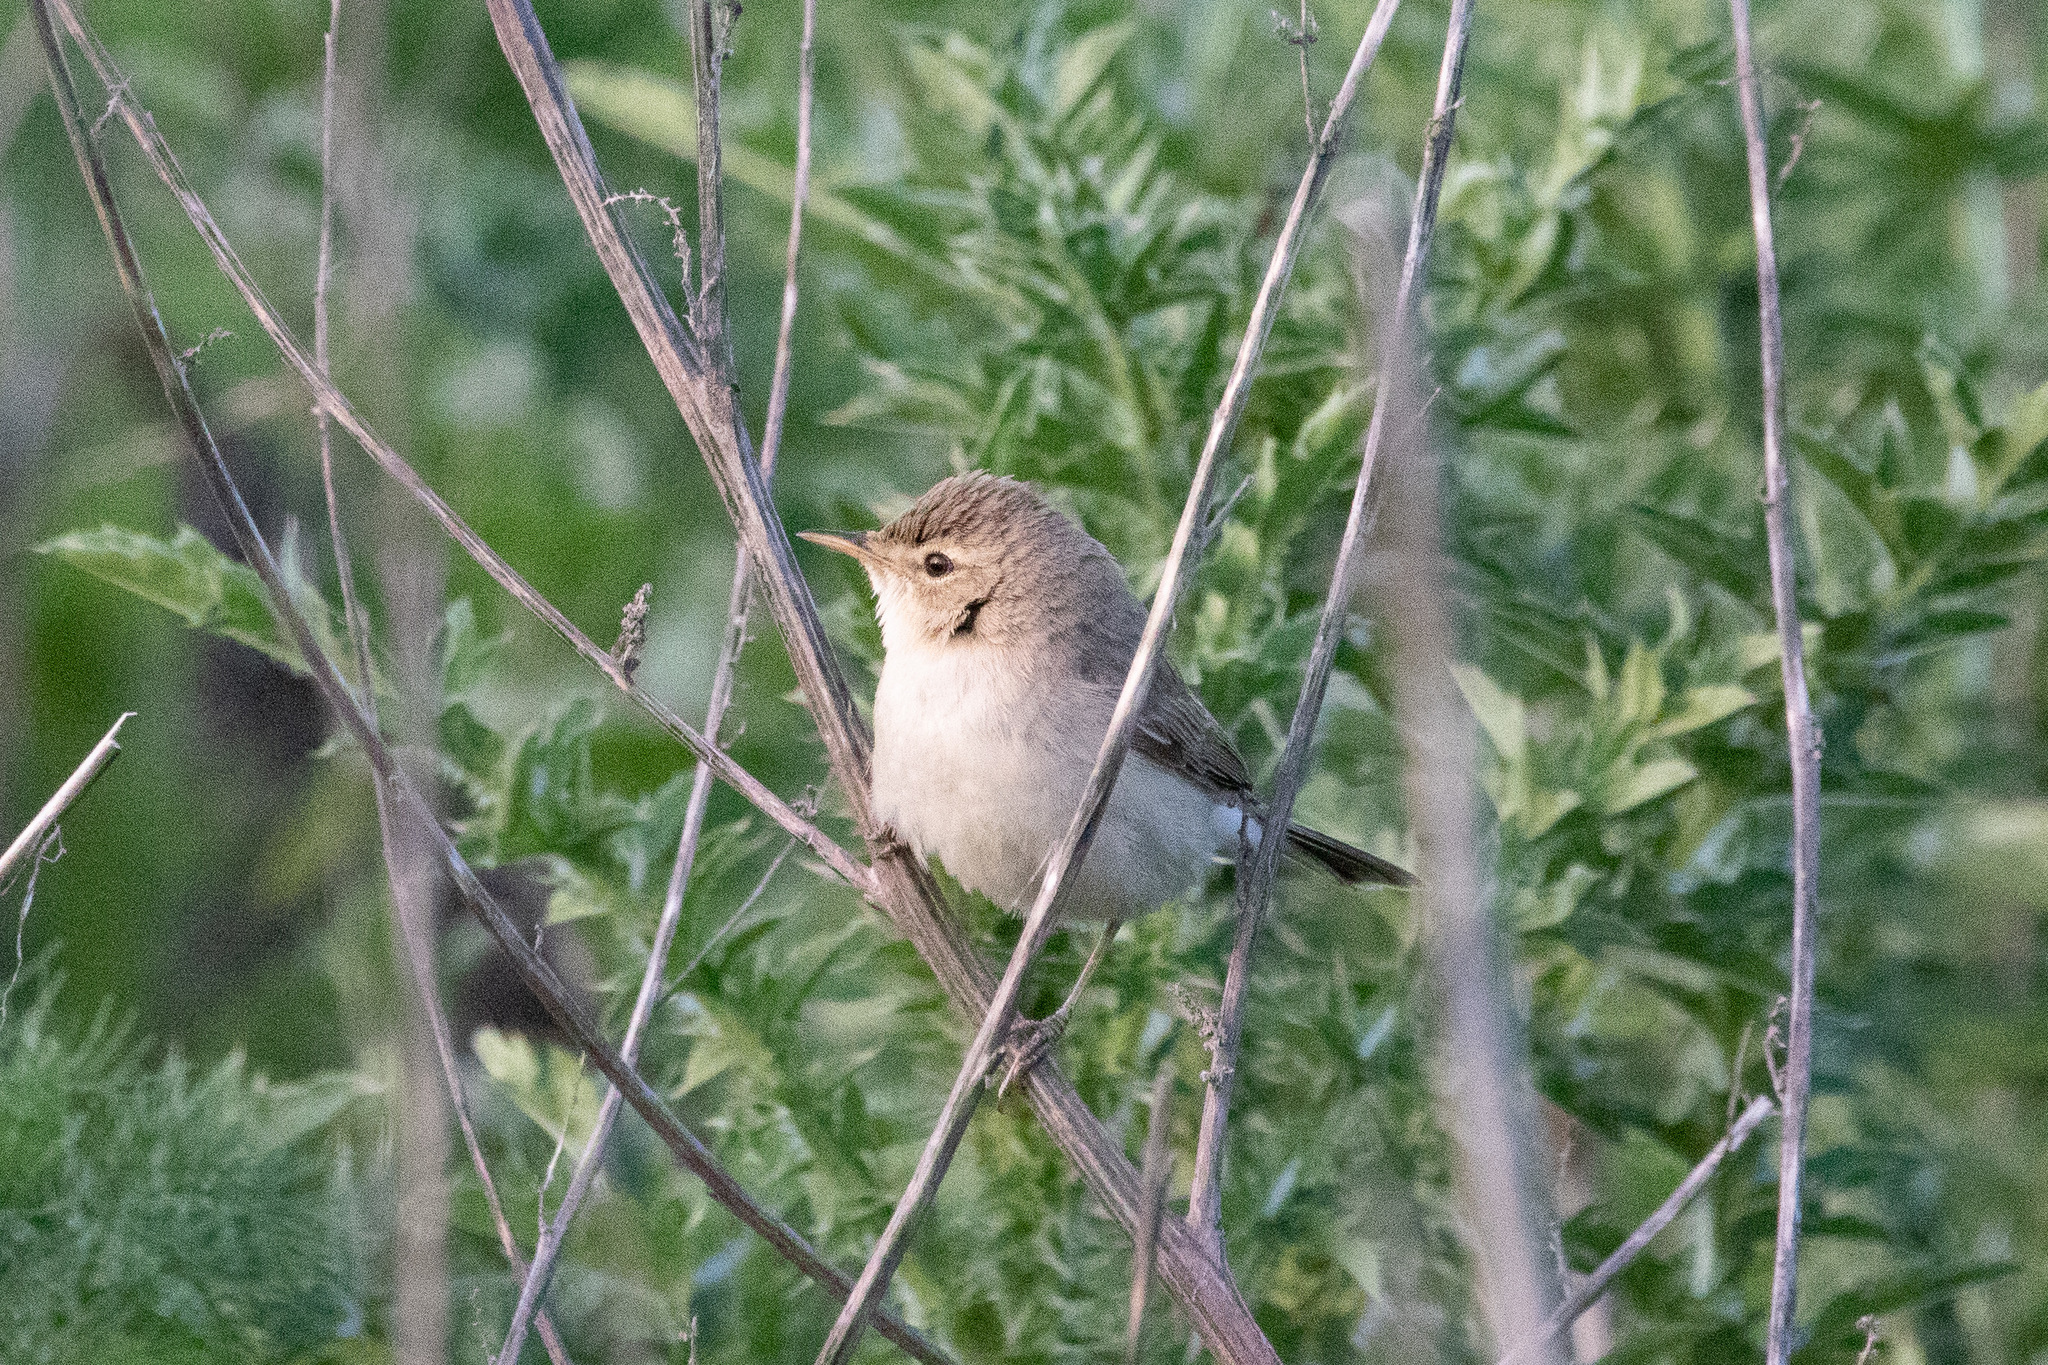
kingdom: Animalia
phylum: Chordata
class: Aves
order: Passeriformes
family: Acrocephalidae
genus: Iduna
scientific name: Iduna caligata
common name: Booted warbler
